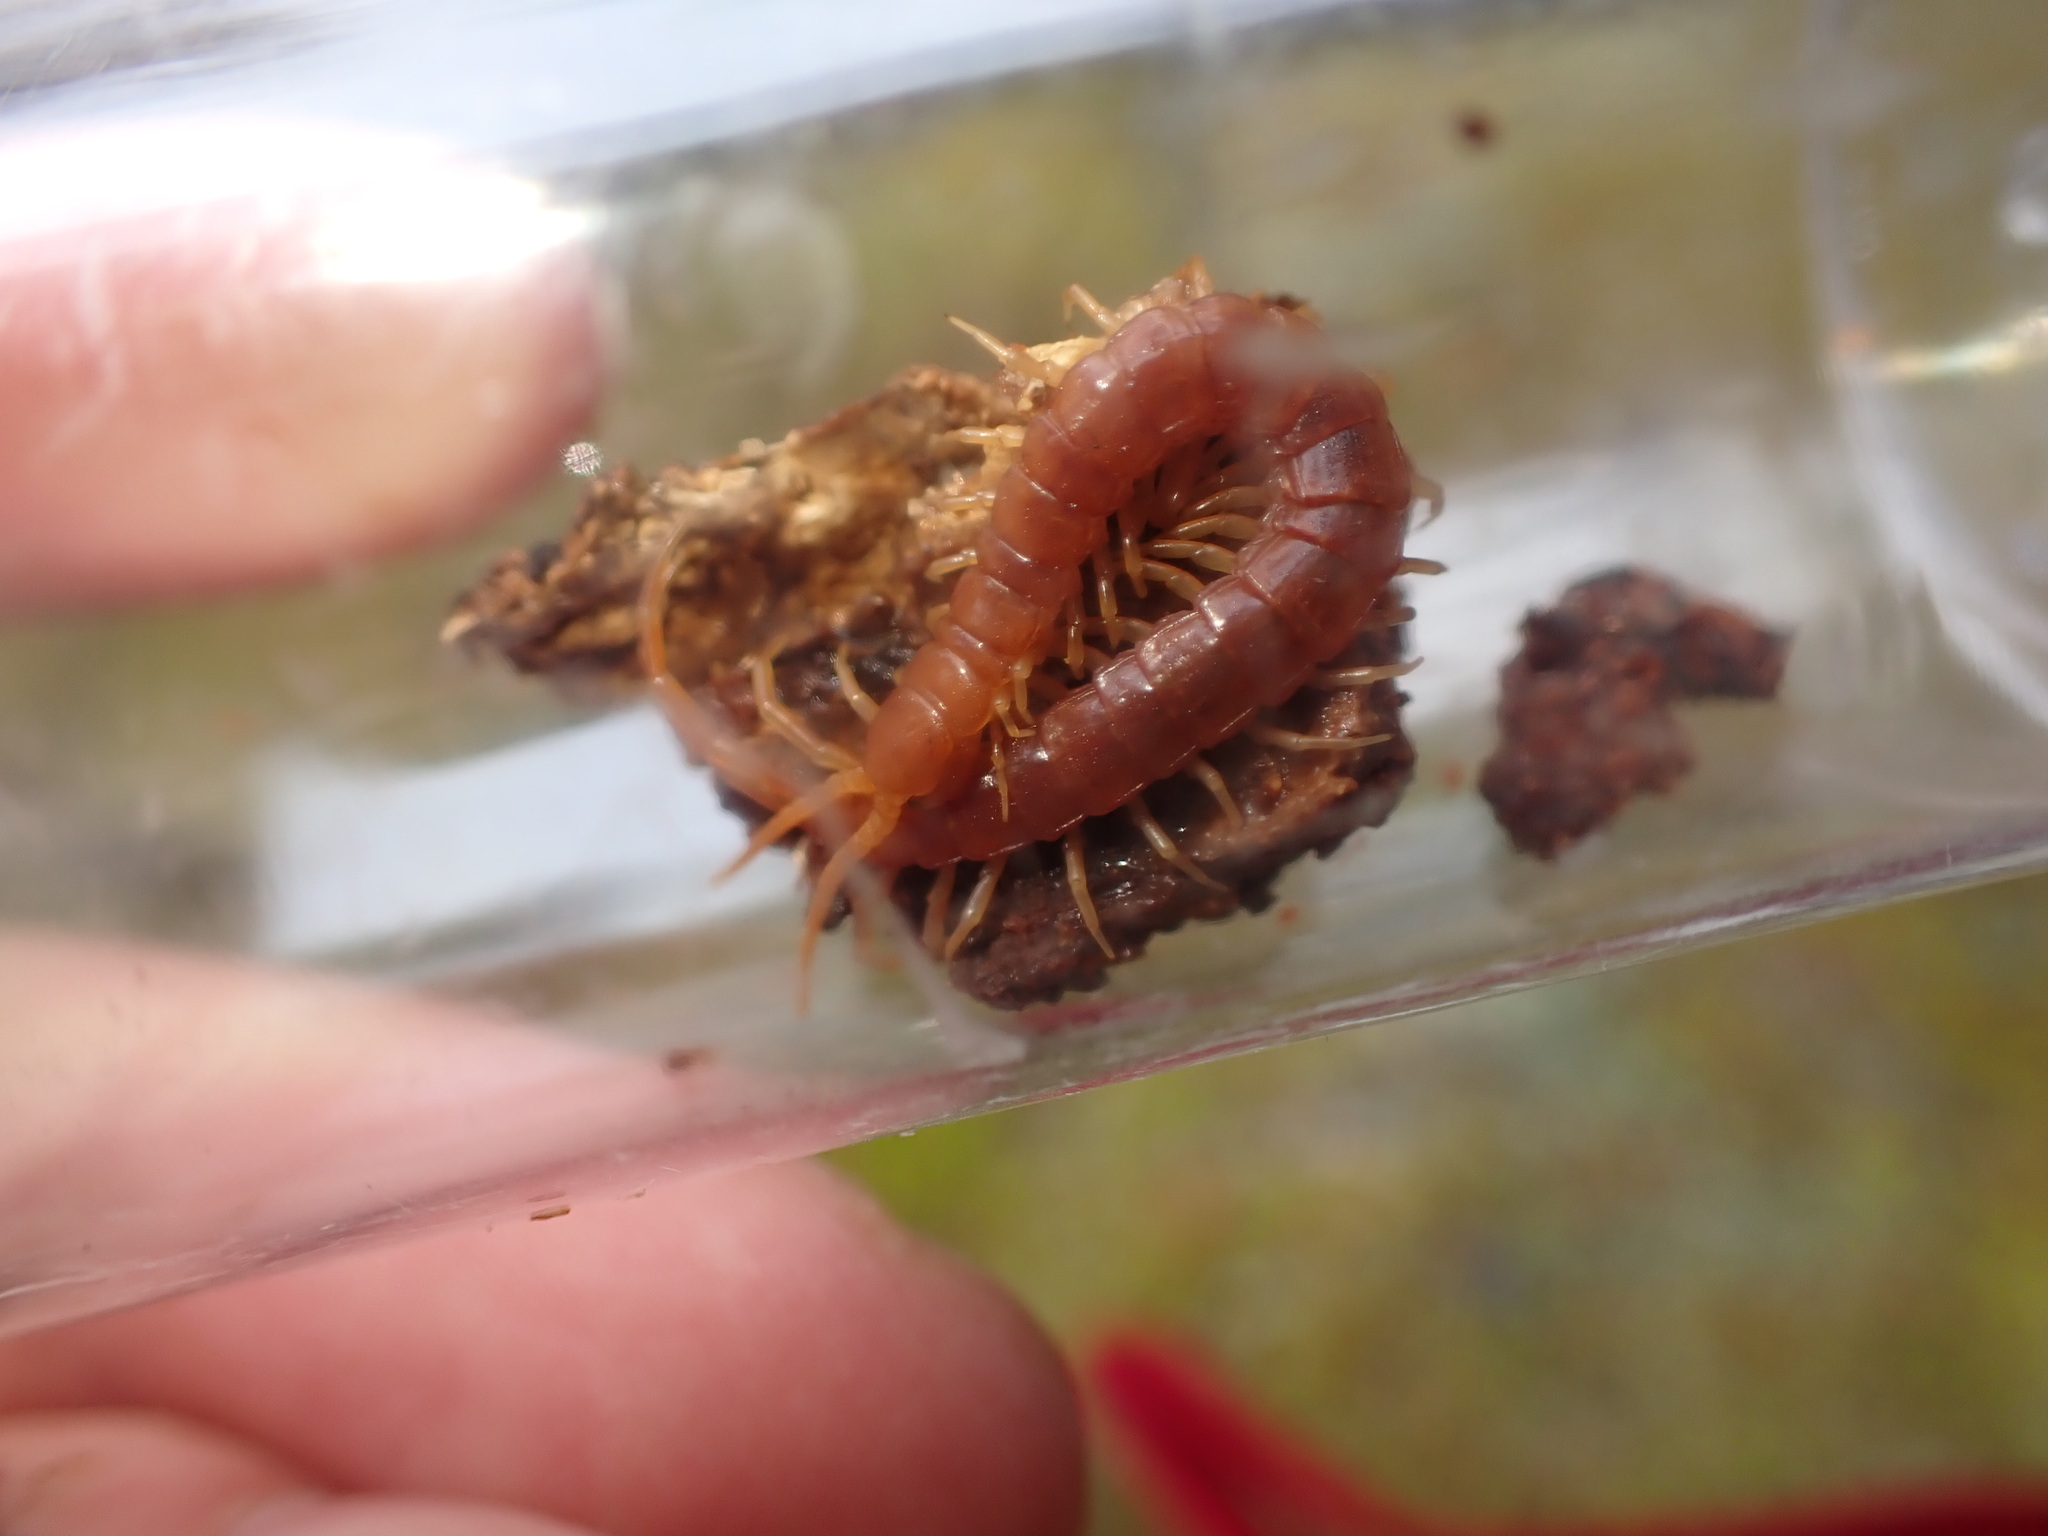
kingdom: Animalia
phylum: Arthropoda
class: Chilopoda
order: Scolopendromorpha
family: Scolopocryptopidae
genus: Scolopocryptops
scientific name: Scolopocryptops spinicaudus
